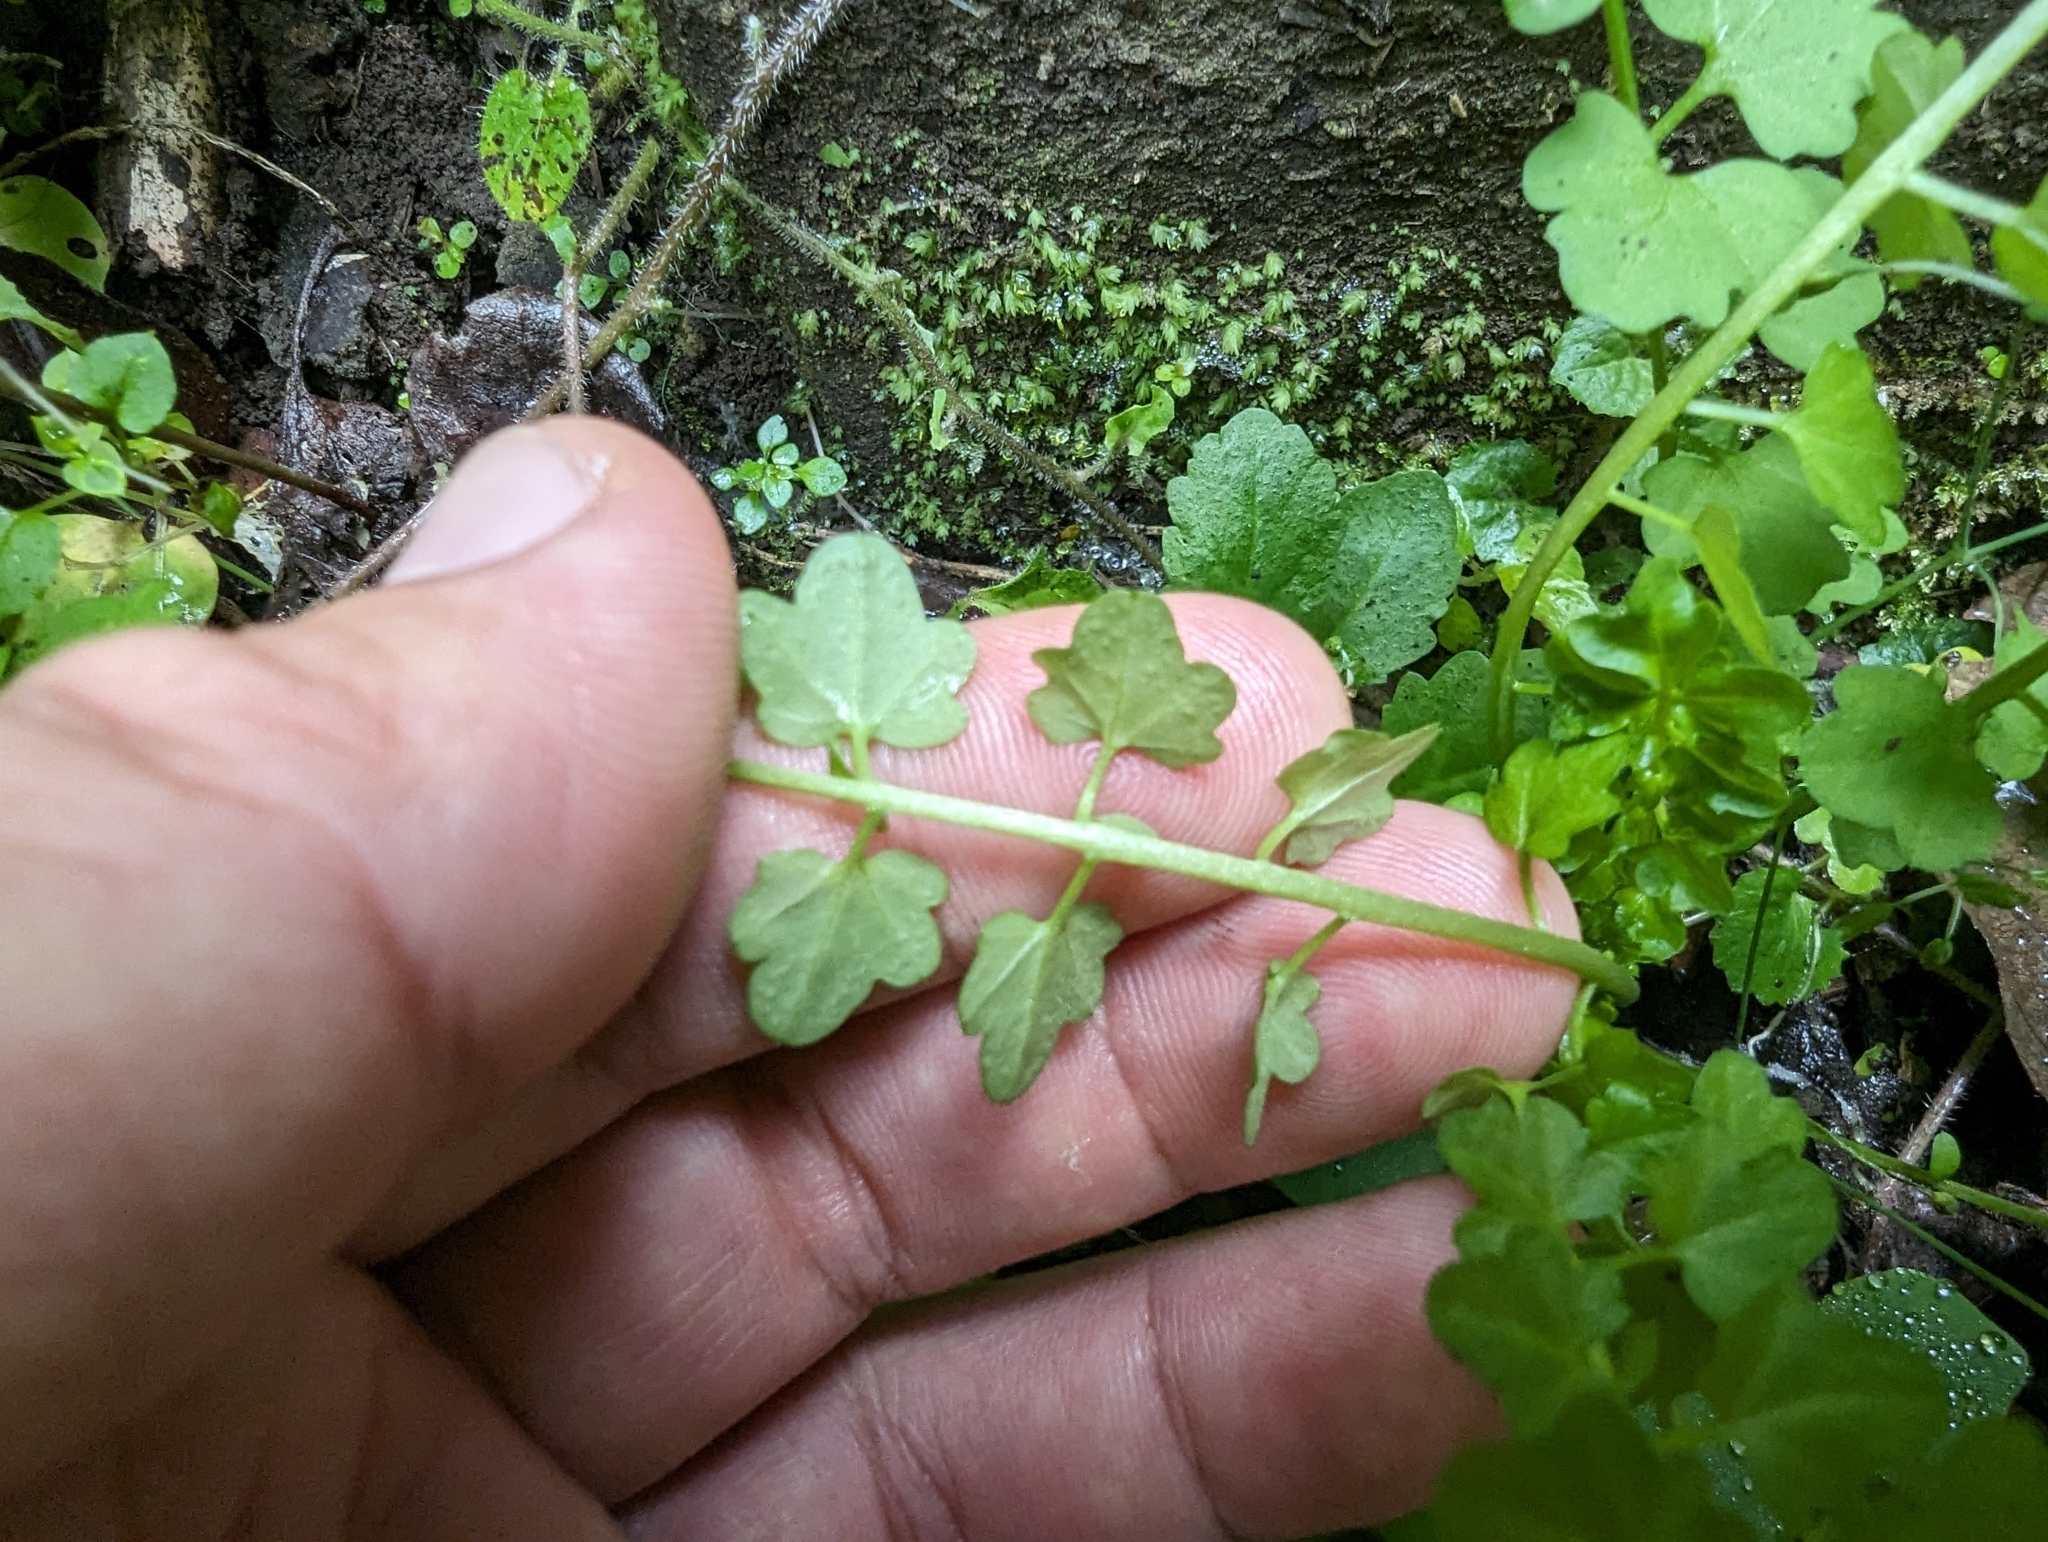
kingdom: Plantae
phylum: Tracheophyta
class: Magnoliopsida
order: Brassicales
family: Brassicaceae
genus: Cardamine
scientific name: Cardamine flexuosa
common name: Woodland bittercress
